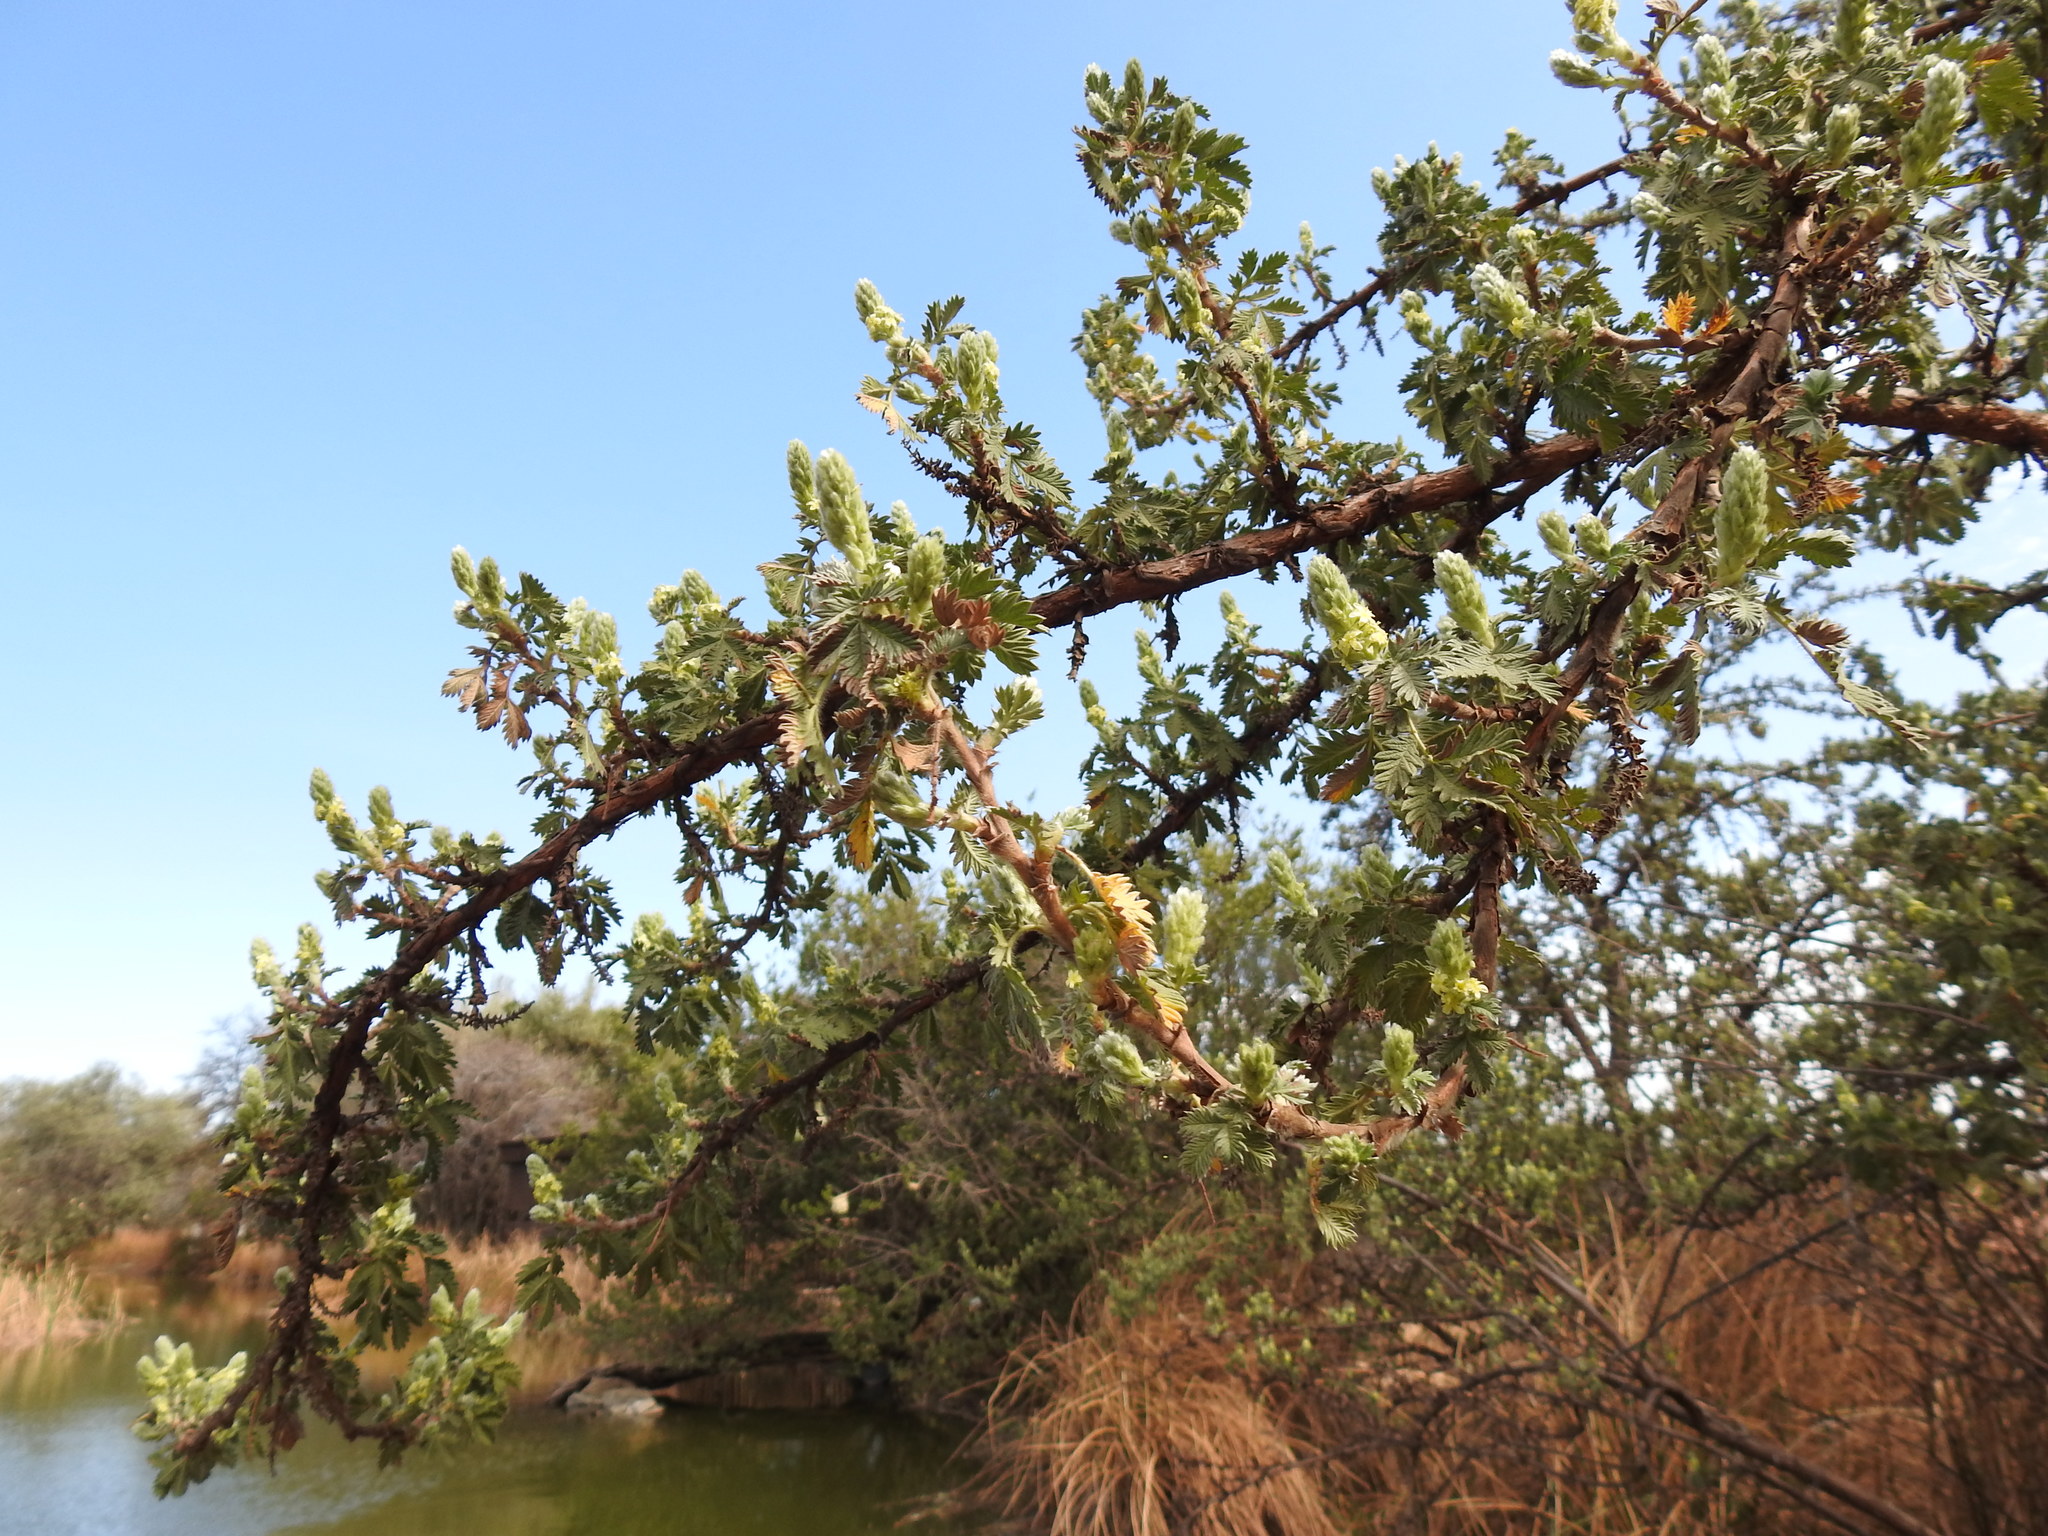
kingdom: Plantae
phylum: Tracheophyta
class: Magnoliopsida
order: Rosales
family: Rosaceae
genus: Leucosidea
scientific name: Leucosidea sericea
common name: Oldwood
